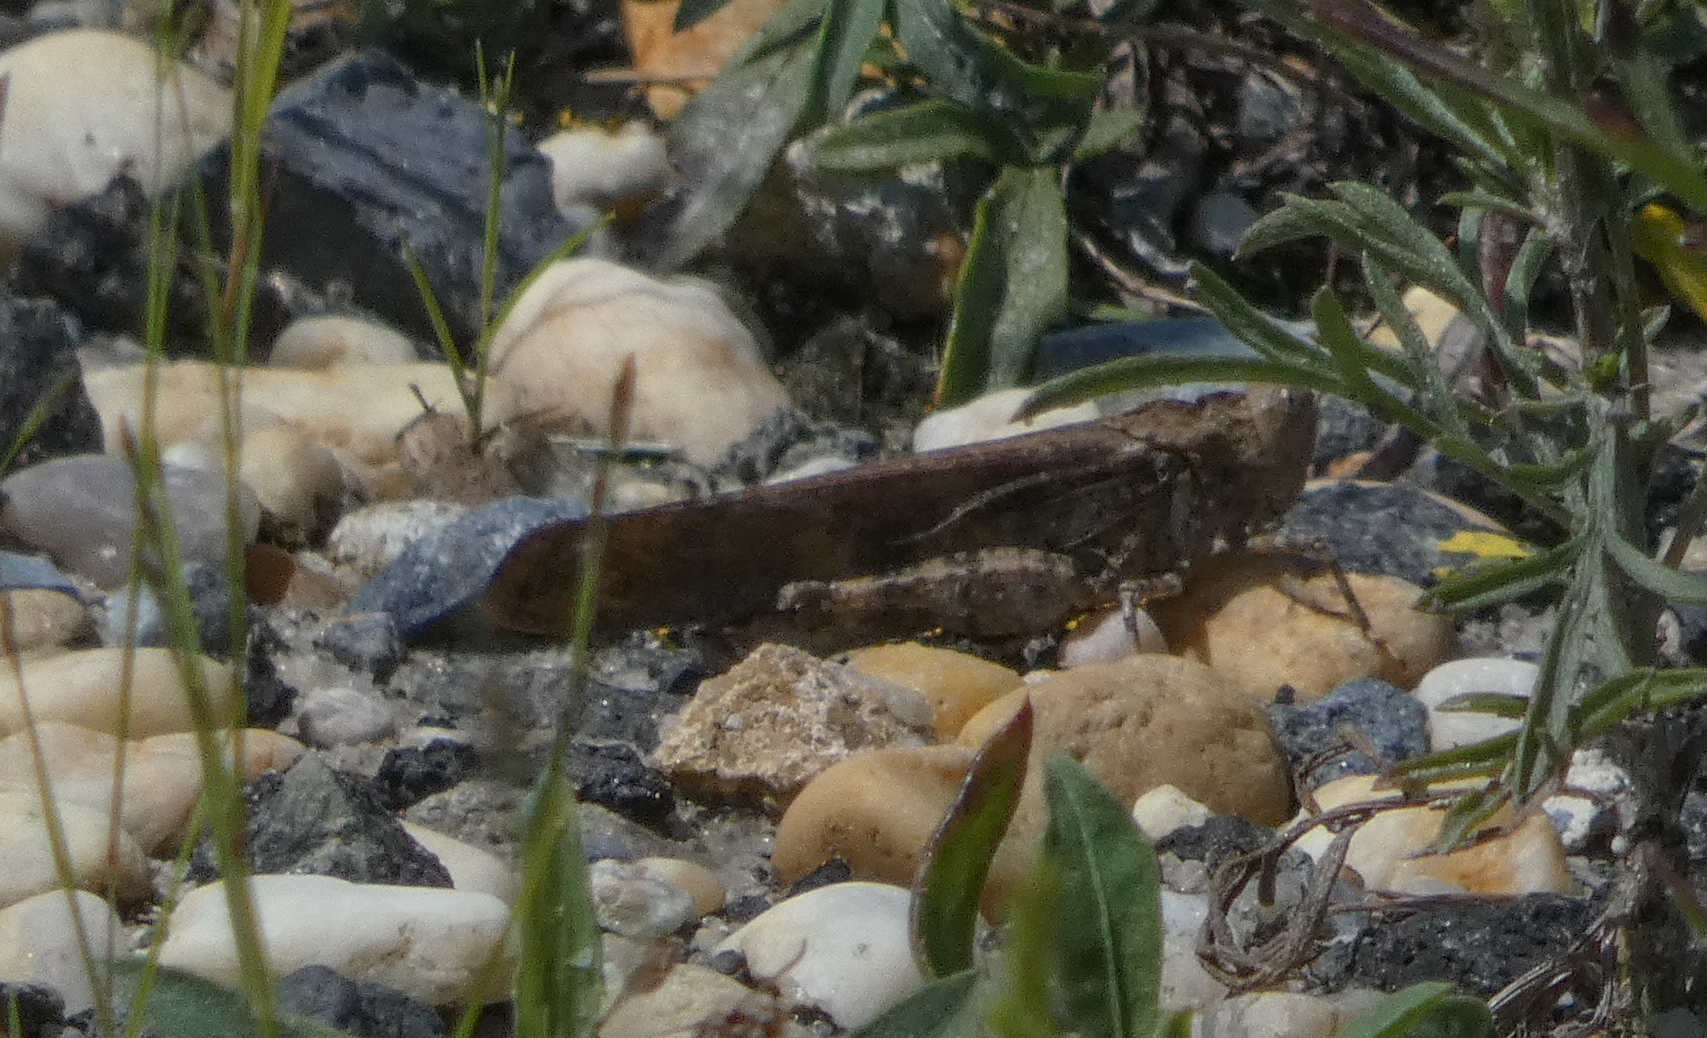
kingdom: Animalia
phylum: Arthropoda
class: Insecta
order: Orthoptera
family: Acrididae
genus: Dissosteira
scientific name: Dissosteira carolina
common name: Carolina grasshopper
